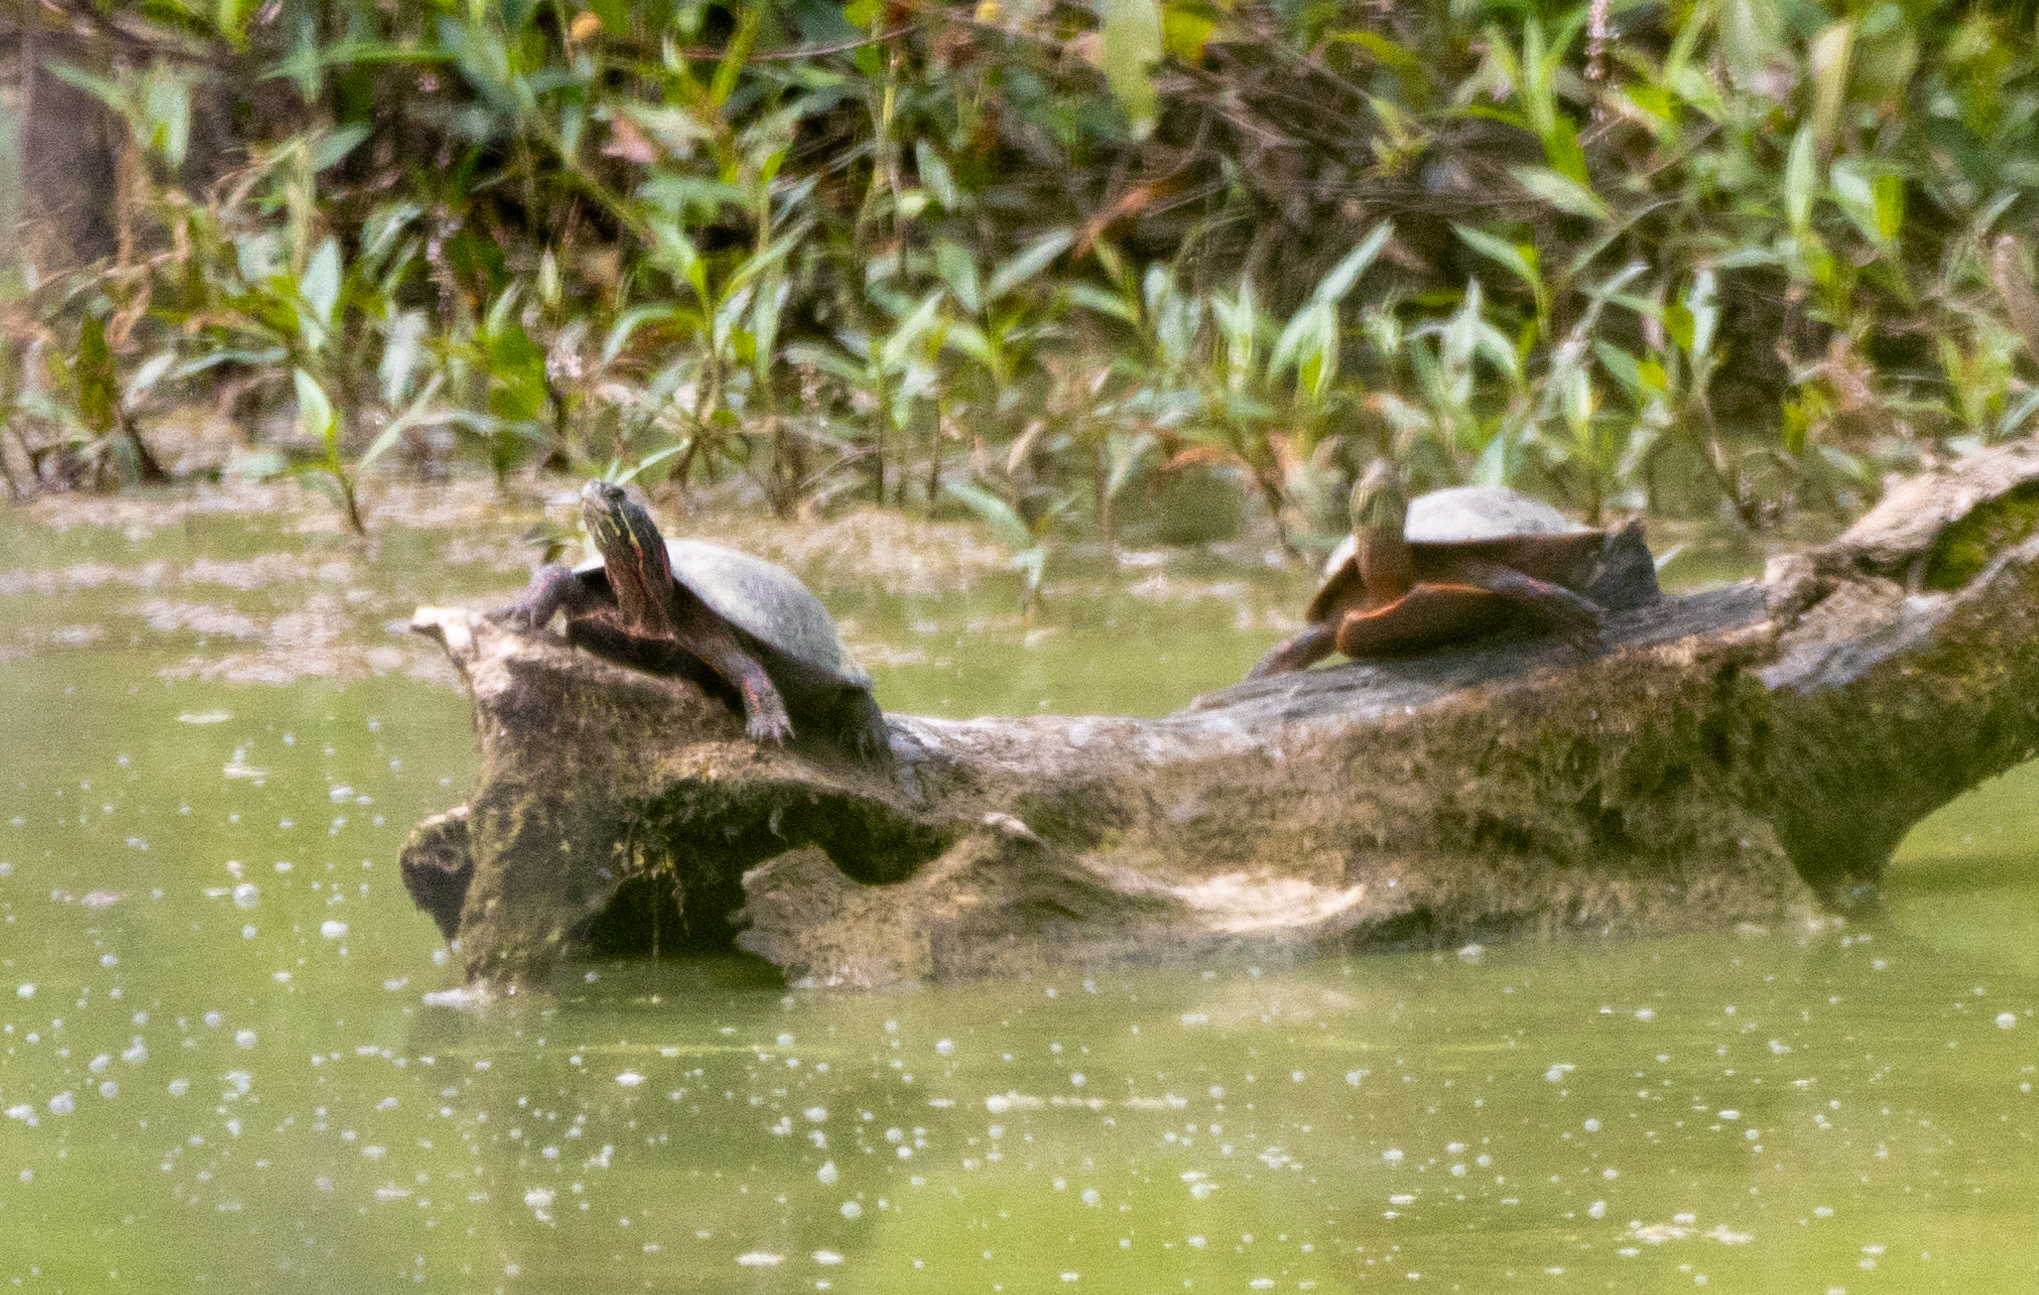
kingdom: Animalia
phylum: Chordata
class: Testudines
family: Emydidae
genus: Chrysemys
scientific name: Chrysemys picta
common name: Painted turtle
